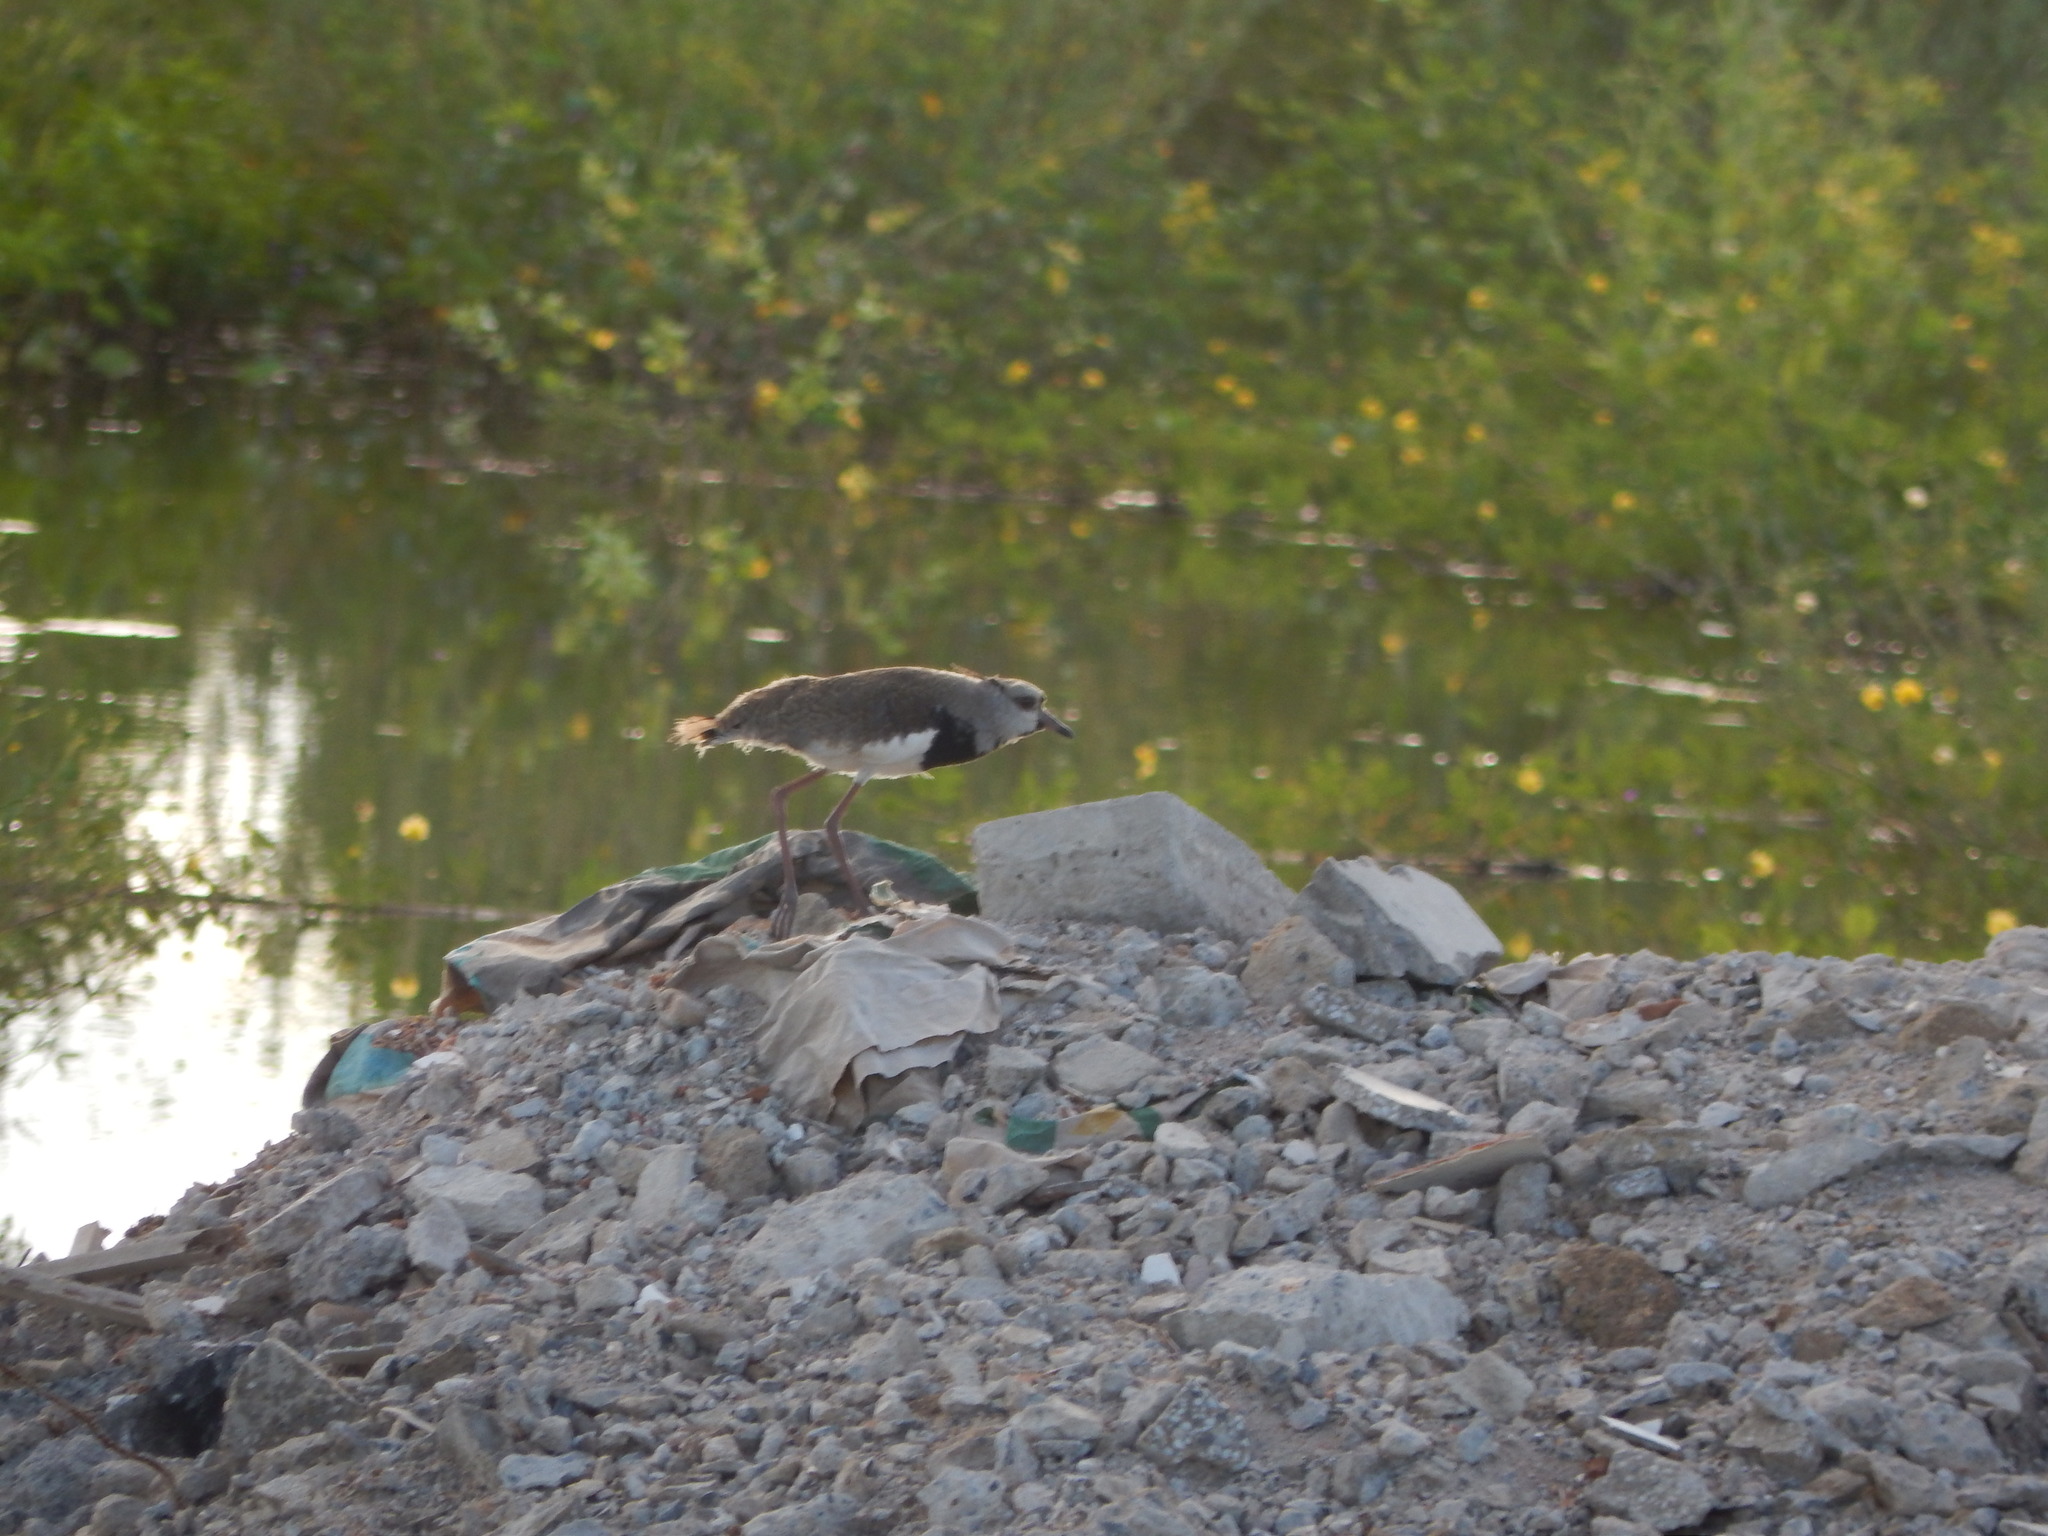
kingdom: Animalia
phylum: Chordata
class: Aves
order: Charadriiformes
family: Charadriidae
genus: Vanellus
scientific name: Vanellus chilensis
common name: Southern lapwing
